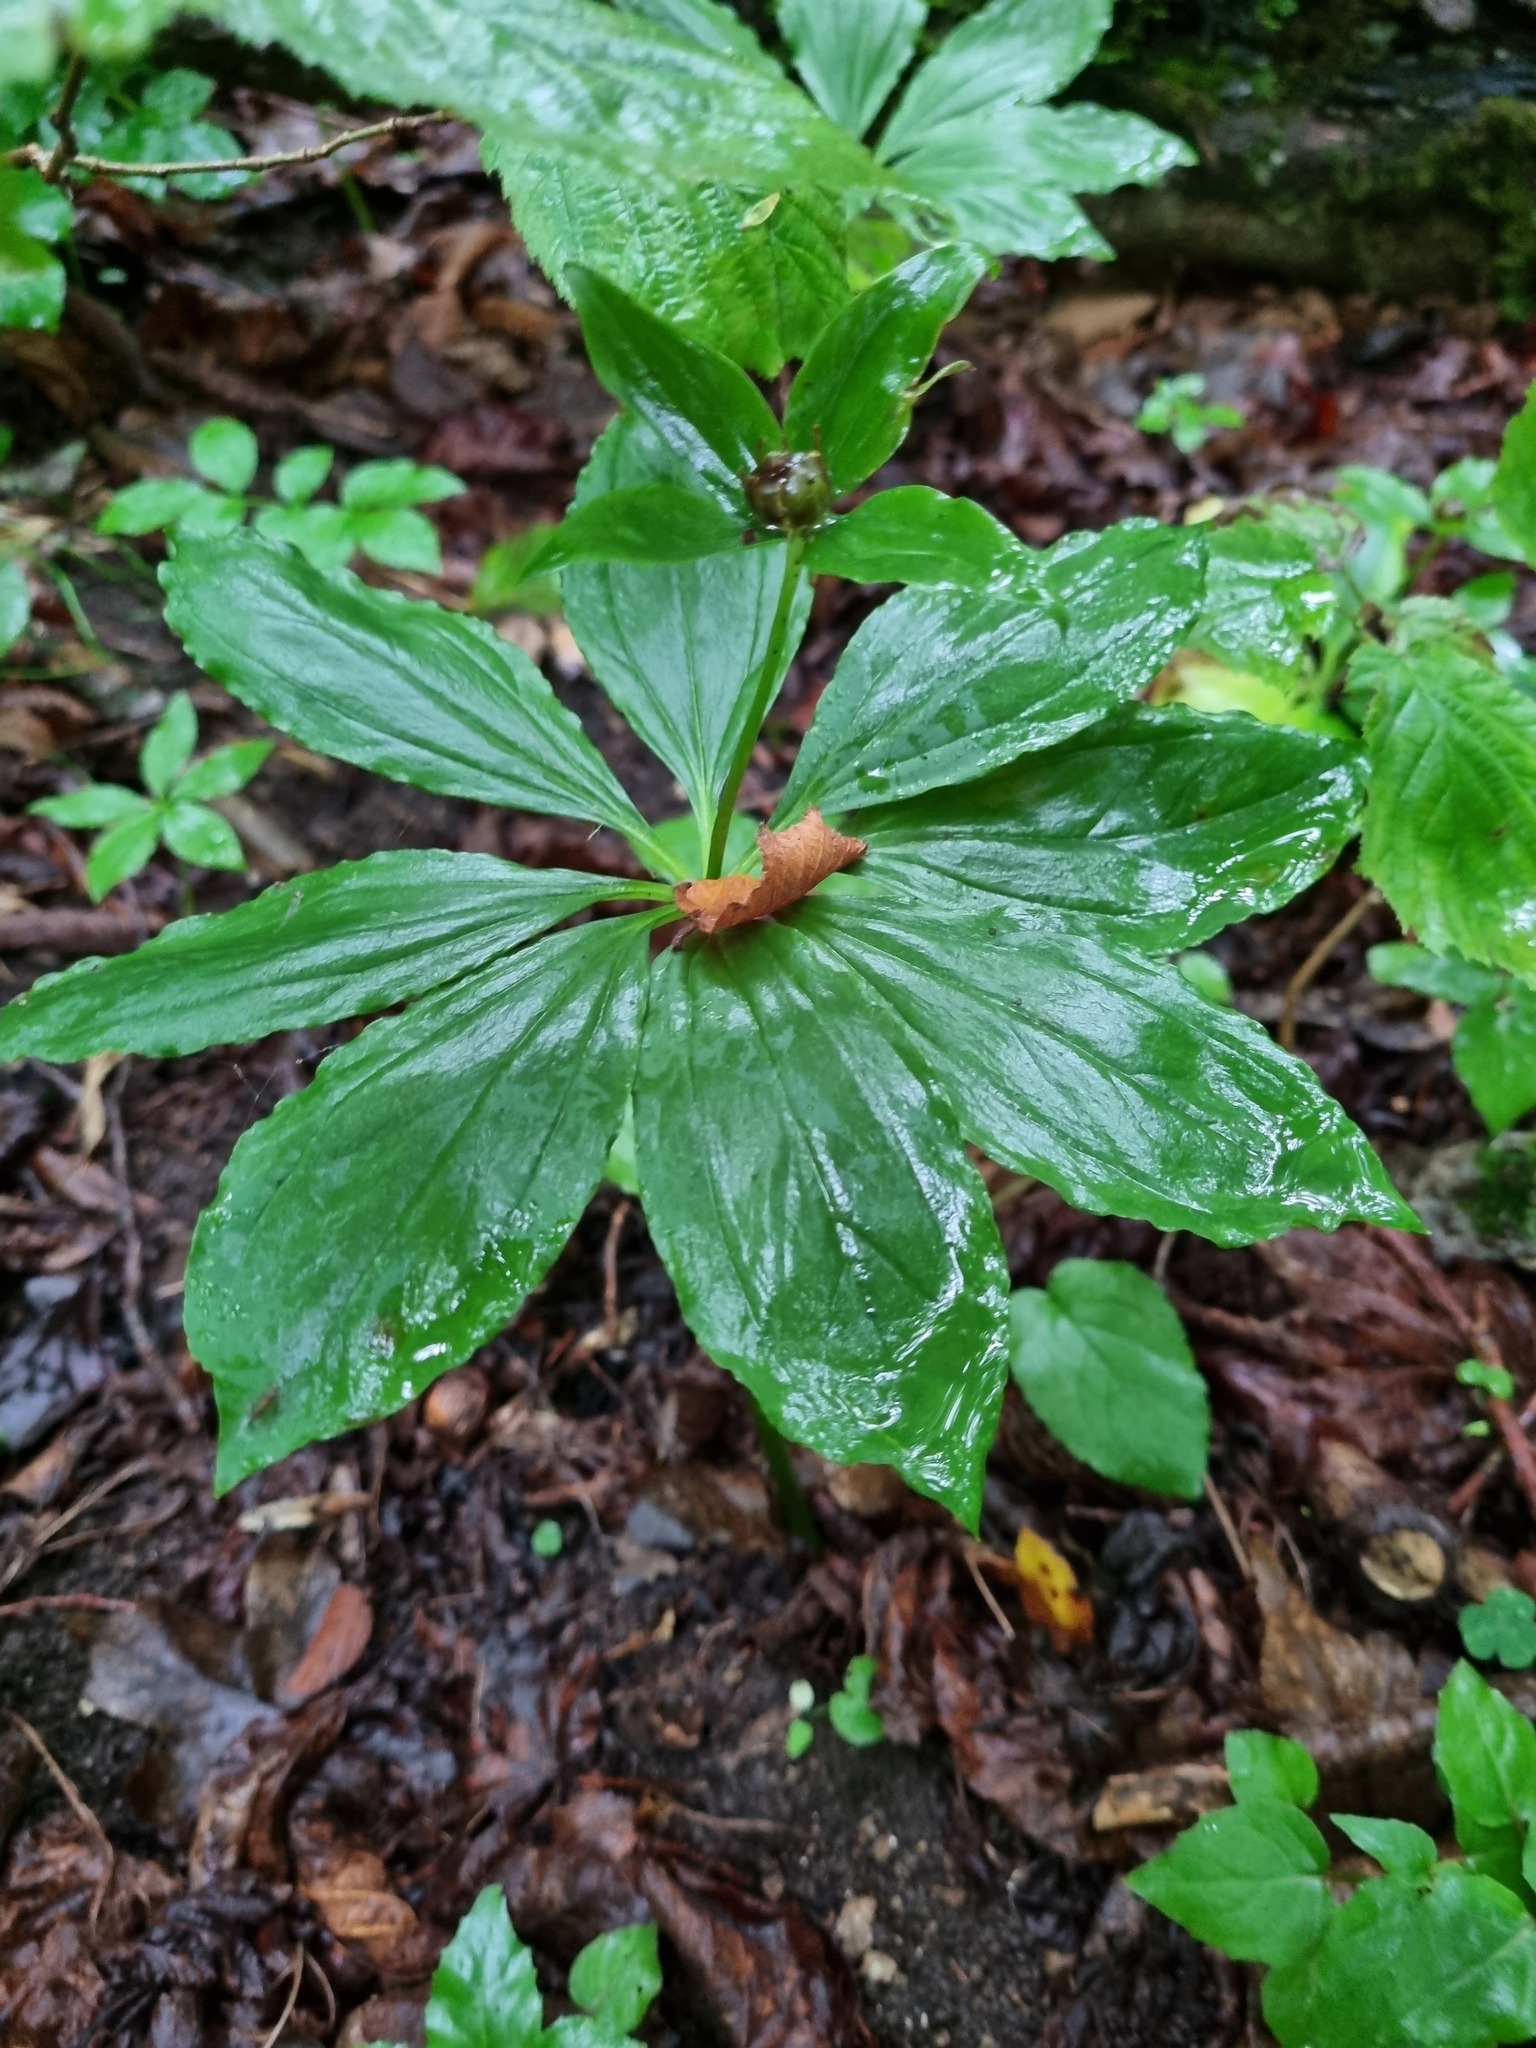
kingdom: Plantae
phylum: Tracheophyta
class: Liliopsida
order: Liliales
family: Melanthiaceae
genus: Paris
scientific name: Paris incompleta
